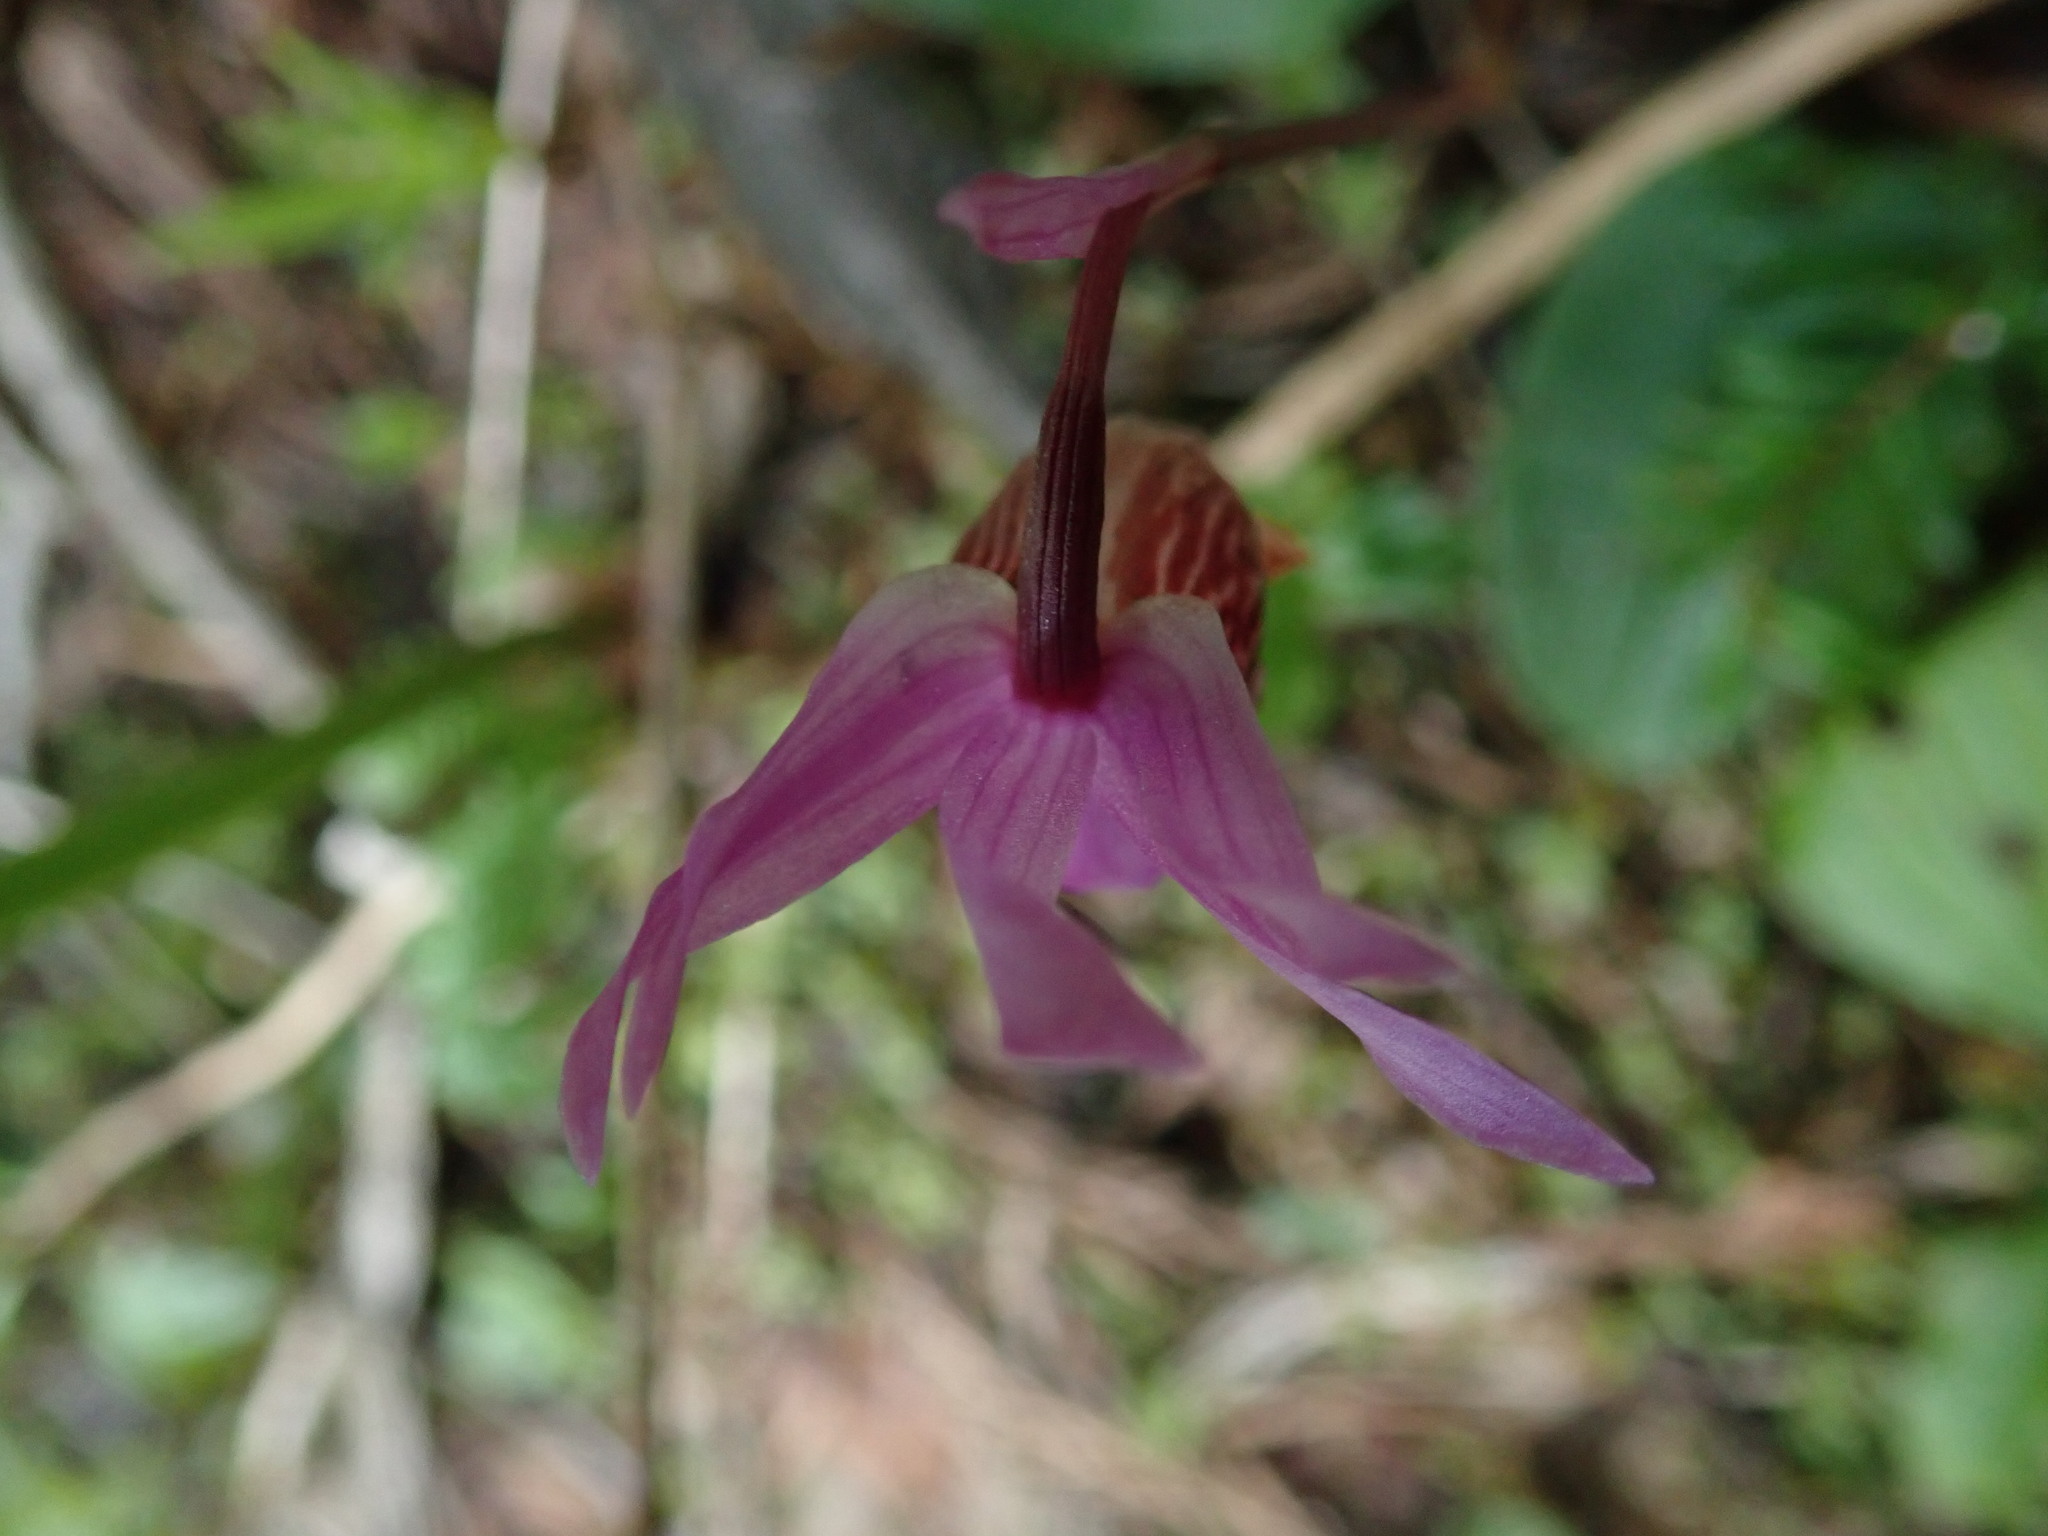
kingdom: Plantae
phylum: Tracheophyta
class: Liliopsida
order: Asparagales
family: Orchidaceae
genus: Calypso
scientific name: Calypso bulbosa
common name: Calypso
